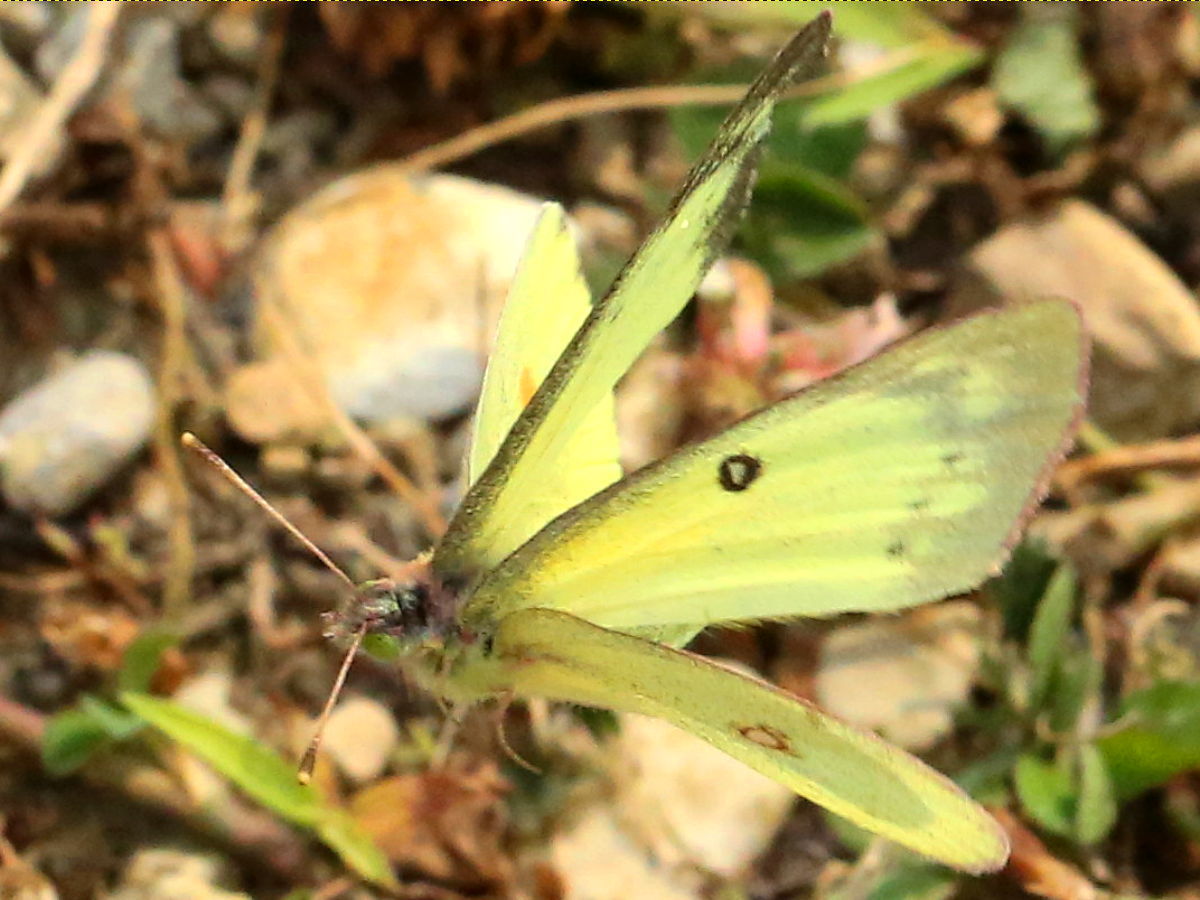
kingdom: Animalia
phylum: Arthropoda
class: Insecta
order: Lepidoptera
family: Pieridae
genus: Colias
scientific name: Colias philodice
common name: Clouded sulphur
